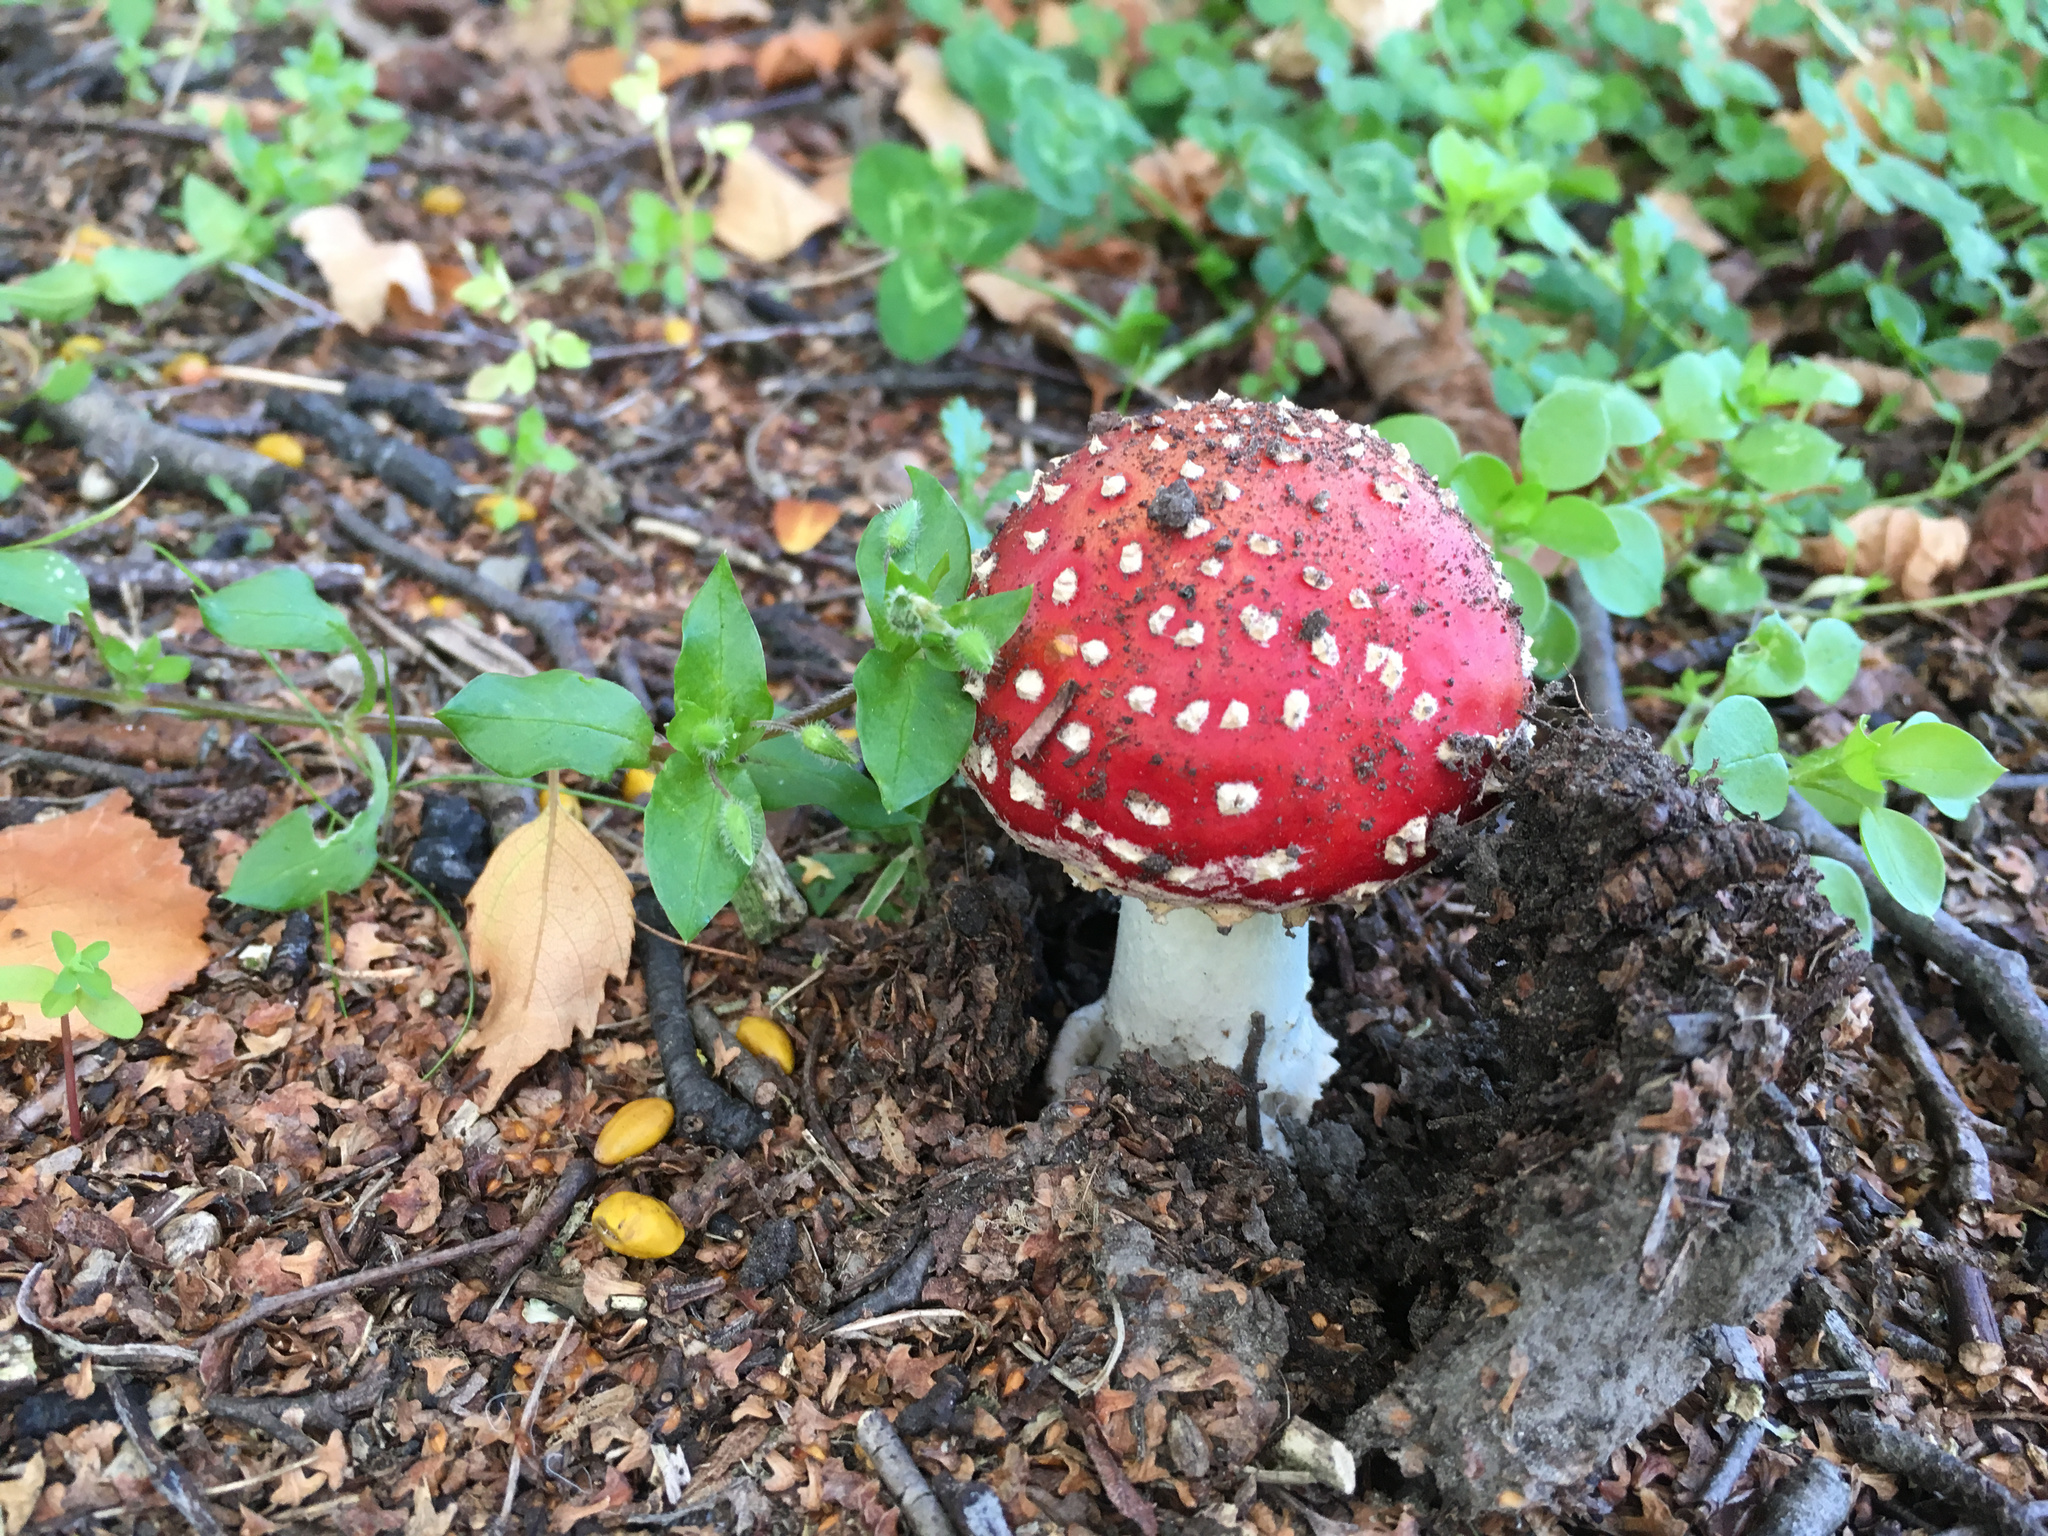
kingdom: Fungi
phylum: Basidiomycota
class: Agaricomycetes
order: Agaricales
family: Amanitaceae
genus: Amanita
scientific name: Amanita muscaria
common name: Fly agaric
